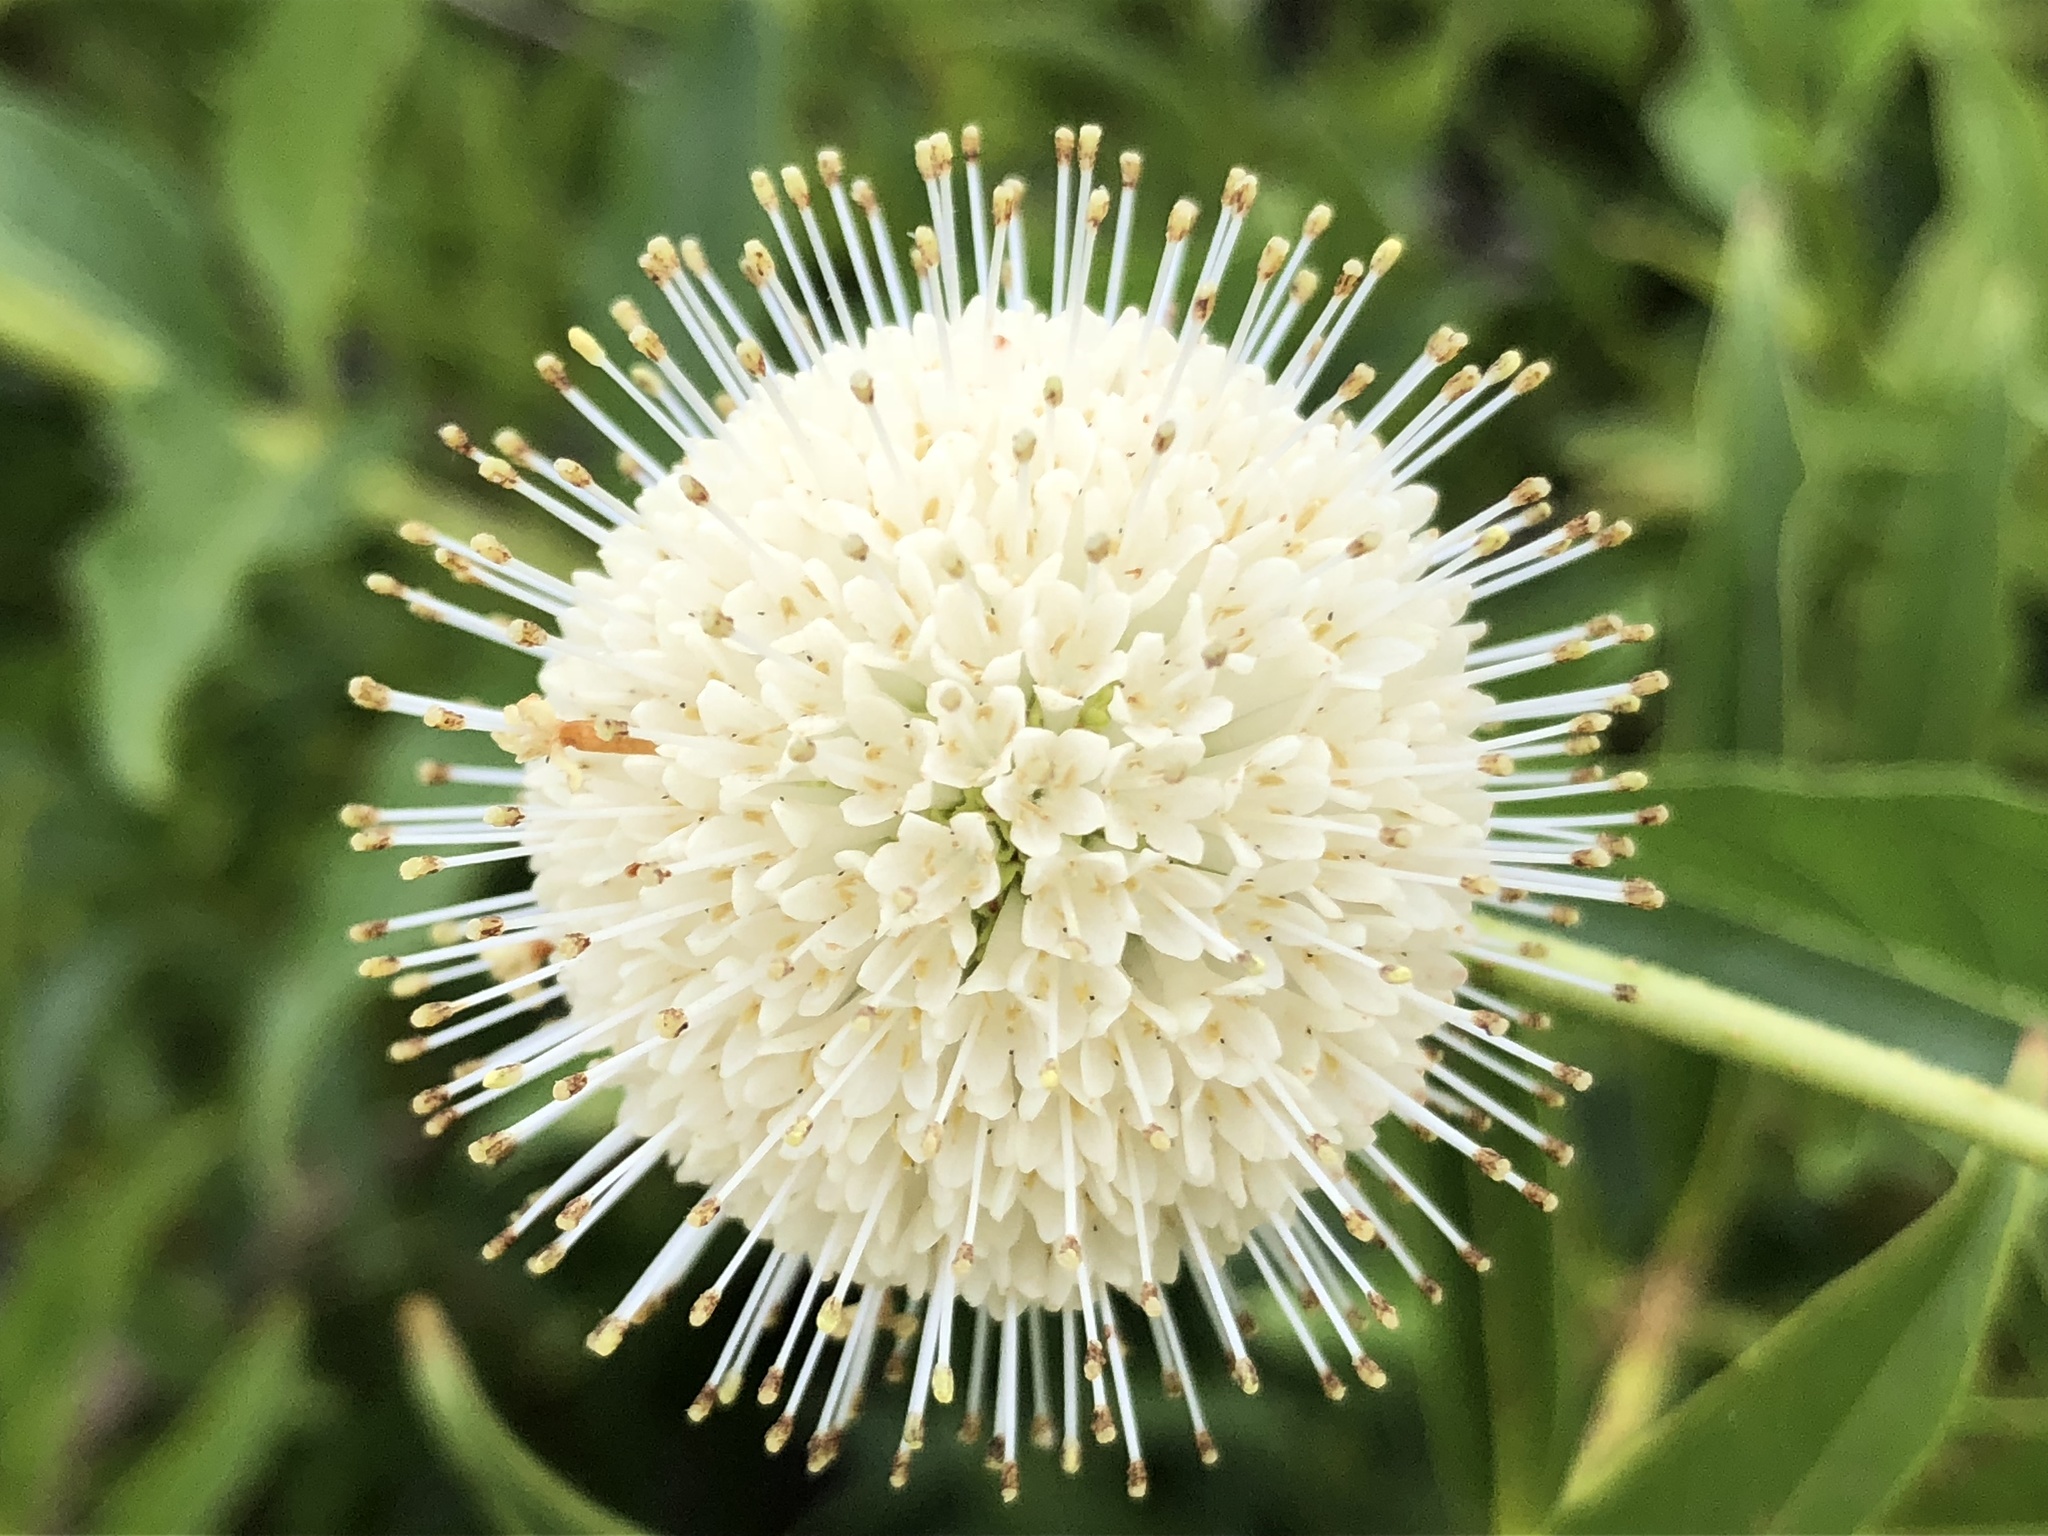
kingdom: Plantae
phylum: Tracheophyta
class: Magnoliopsida
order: Gentianales
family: Rubiaceae
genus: Cephalanthus
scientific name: Cephalanthus occidentalis
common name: Button-willow
